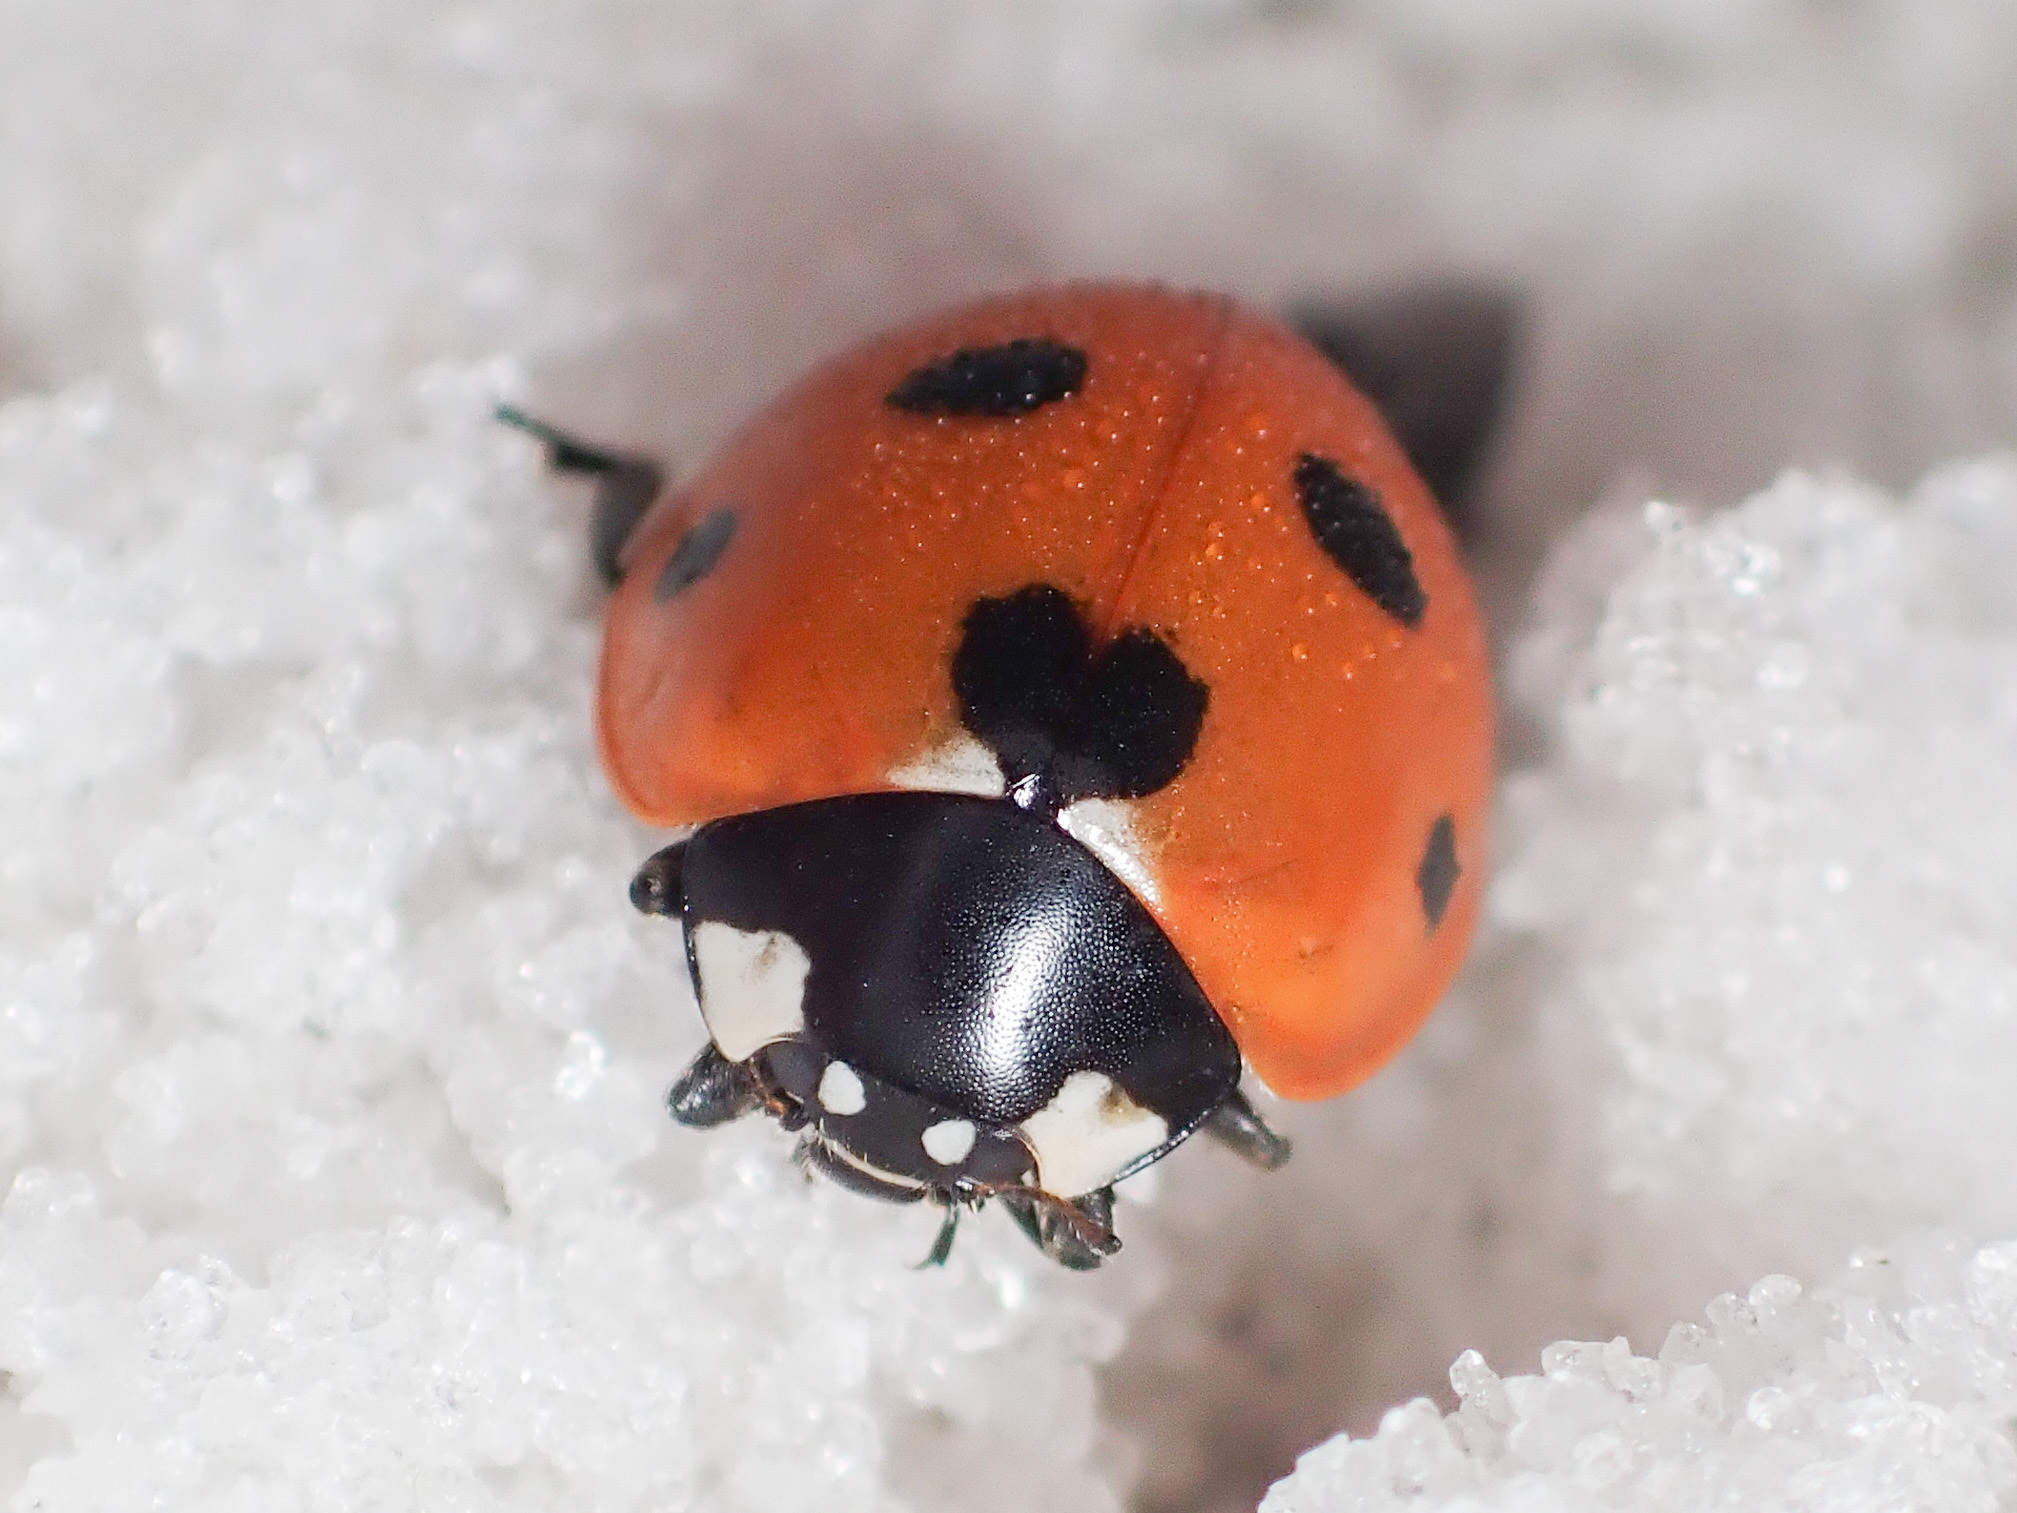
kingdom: Animalia
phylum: Arthropoda
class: Insecta
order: Coleoptera
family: Coccinellidae
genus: Coccinella
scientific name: Coccinella septempunctata
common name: Sevenspotted lady beetle
